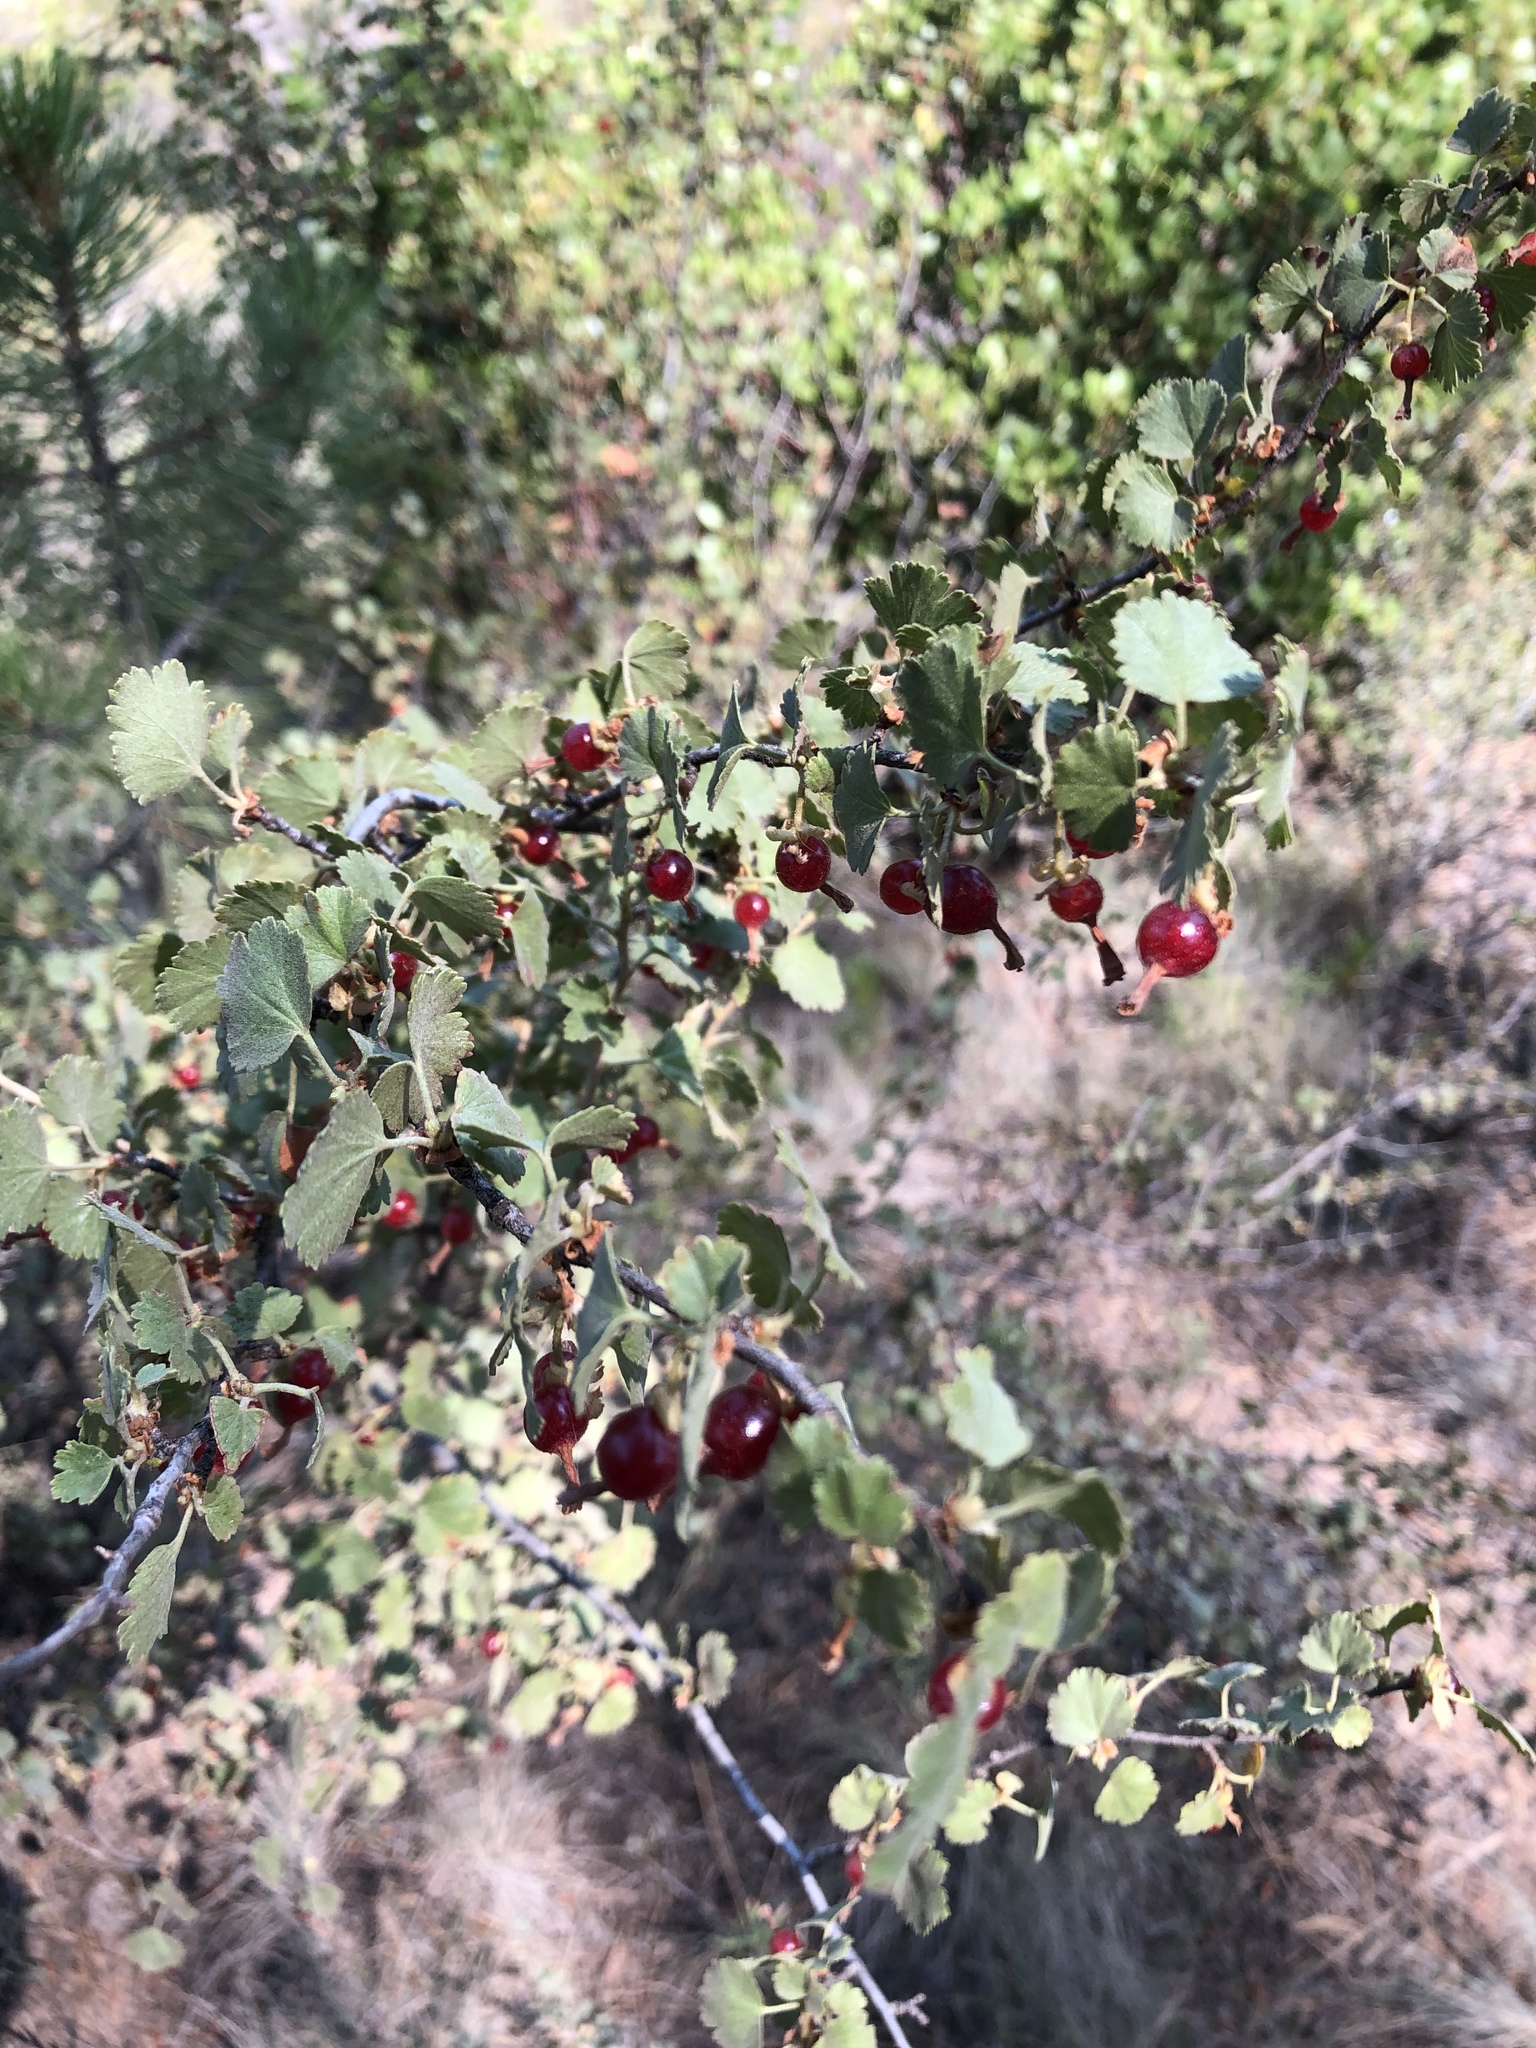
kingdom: Plantae
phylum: Tracheophyta
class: Magnoliopsida
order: Saxifragales
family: Grossulariaceae
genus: Ribes
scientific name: Ribes cereum
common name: Wax currant
